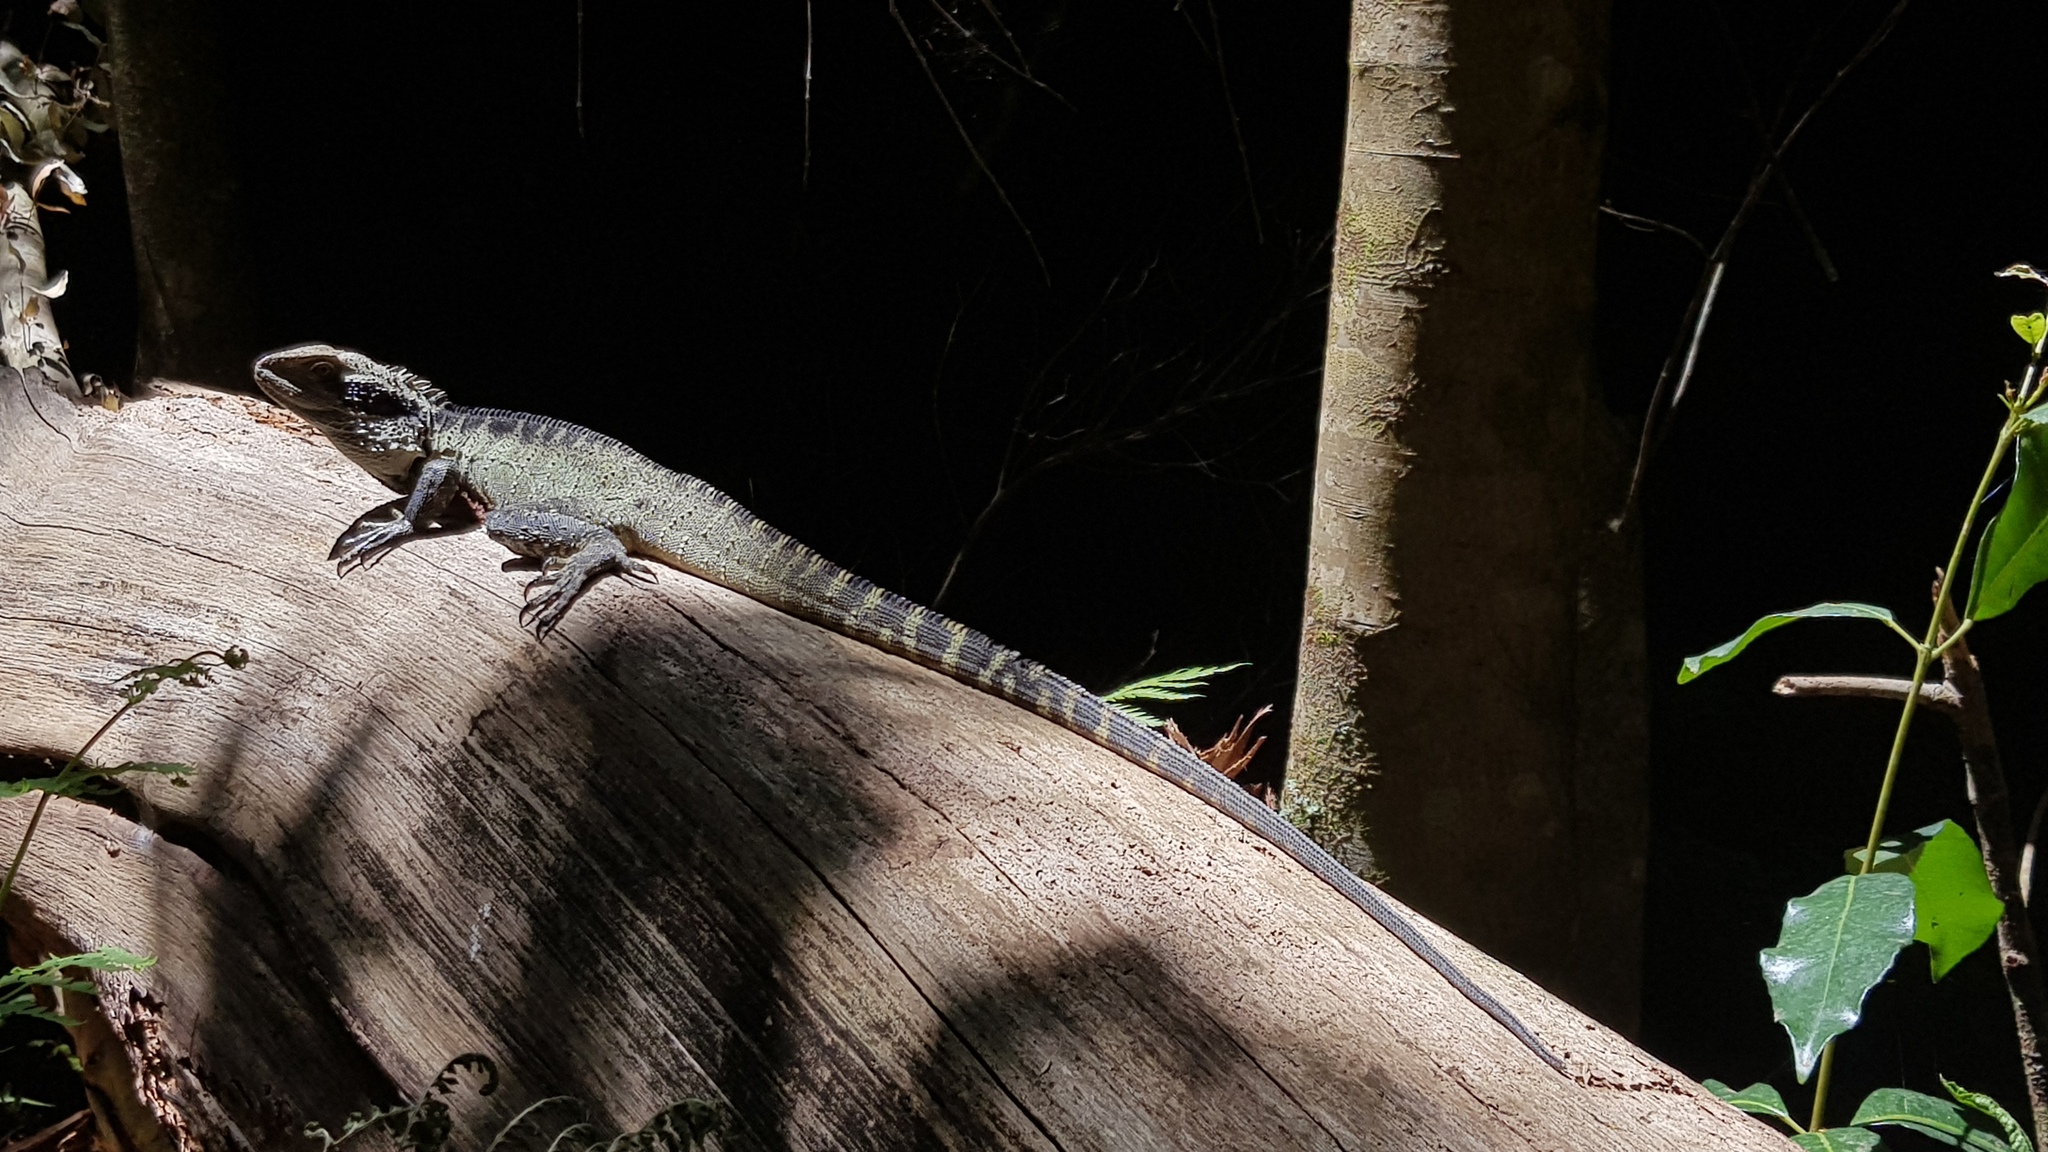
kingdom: Animalia
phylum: Chordata
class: Squamata
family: Agamidae
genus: Intellagama
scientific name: Intellagama lesueurii
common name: Eastern water dragon
